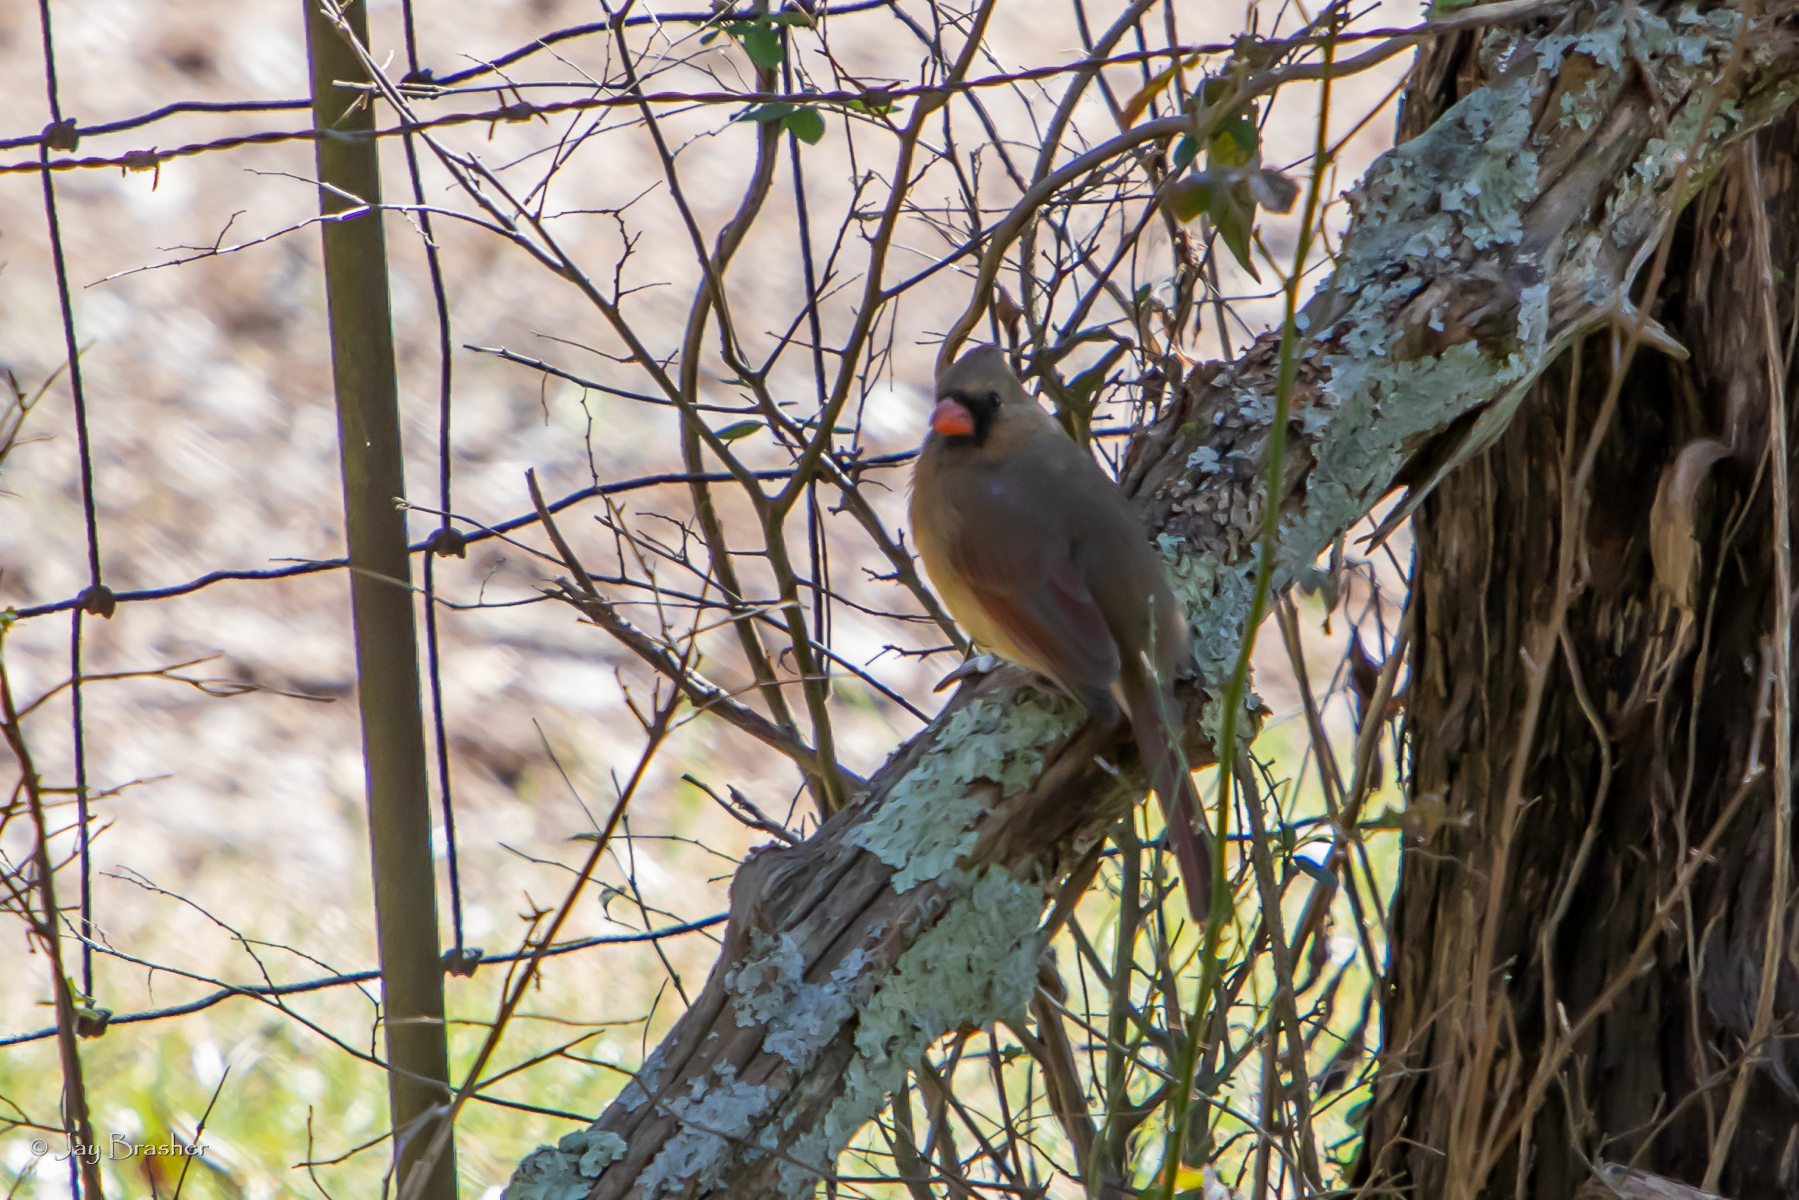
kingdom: Animalia
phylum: Chordata
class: Aves
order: Passeriformes
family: Cardinalidae
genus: Cardinalis
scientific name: Cardinalis cardinalis
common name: Northern cardinal
